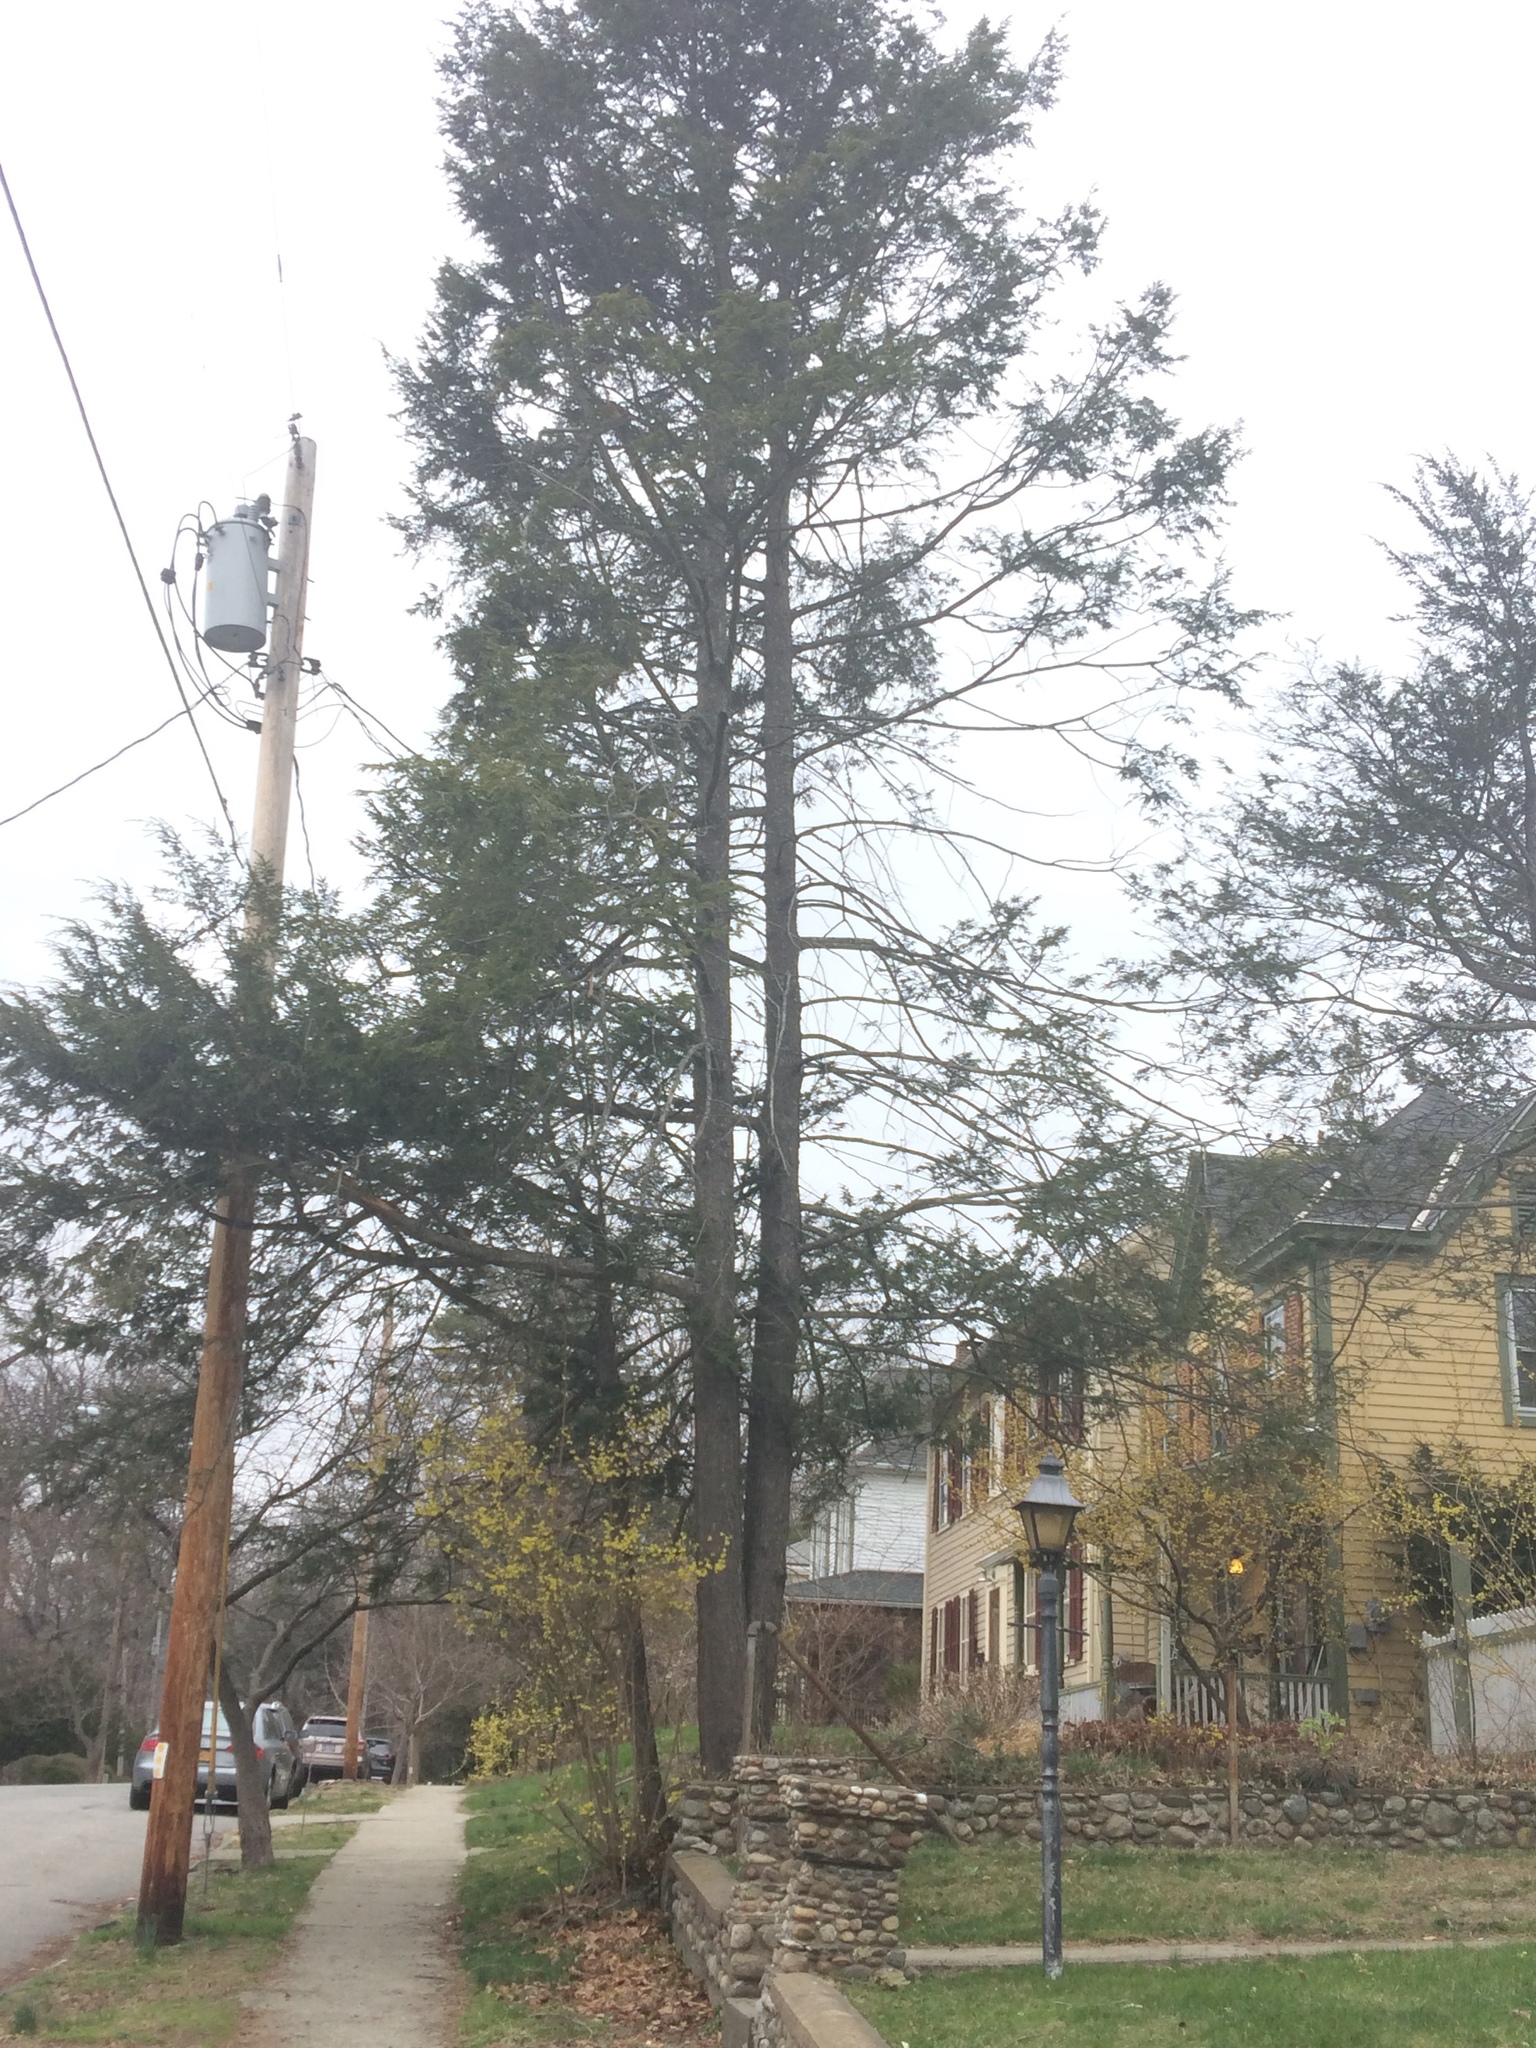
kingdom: Plantae
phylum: Tracheophyta
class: Pinopsida
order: Pinales
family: Pinaceae
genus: Tsuga
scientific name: Tsuga canadensis
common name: Eastern hemlock
